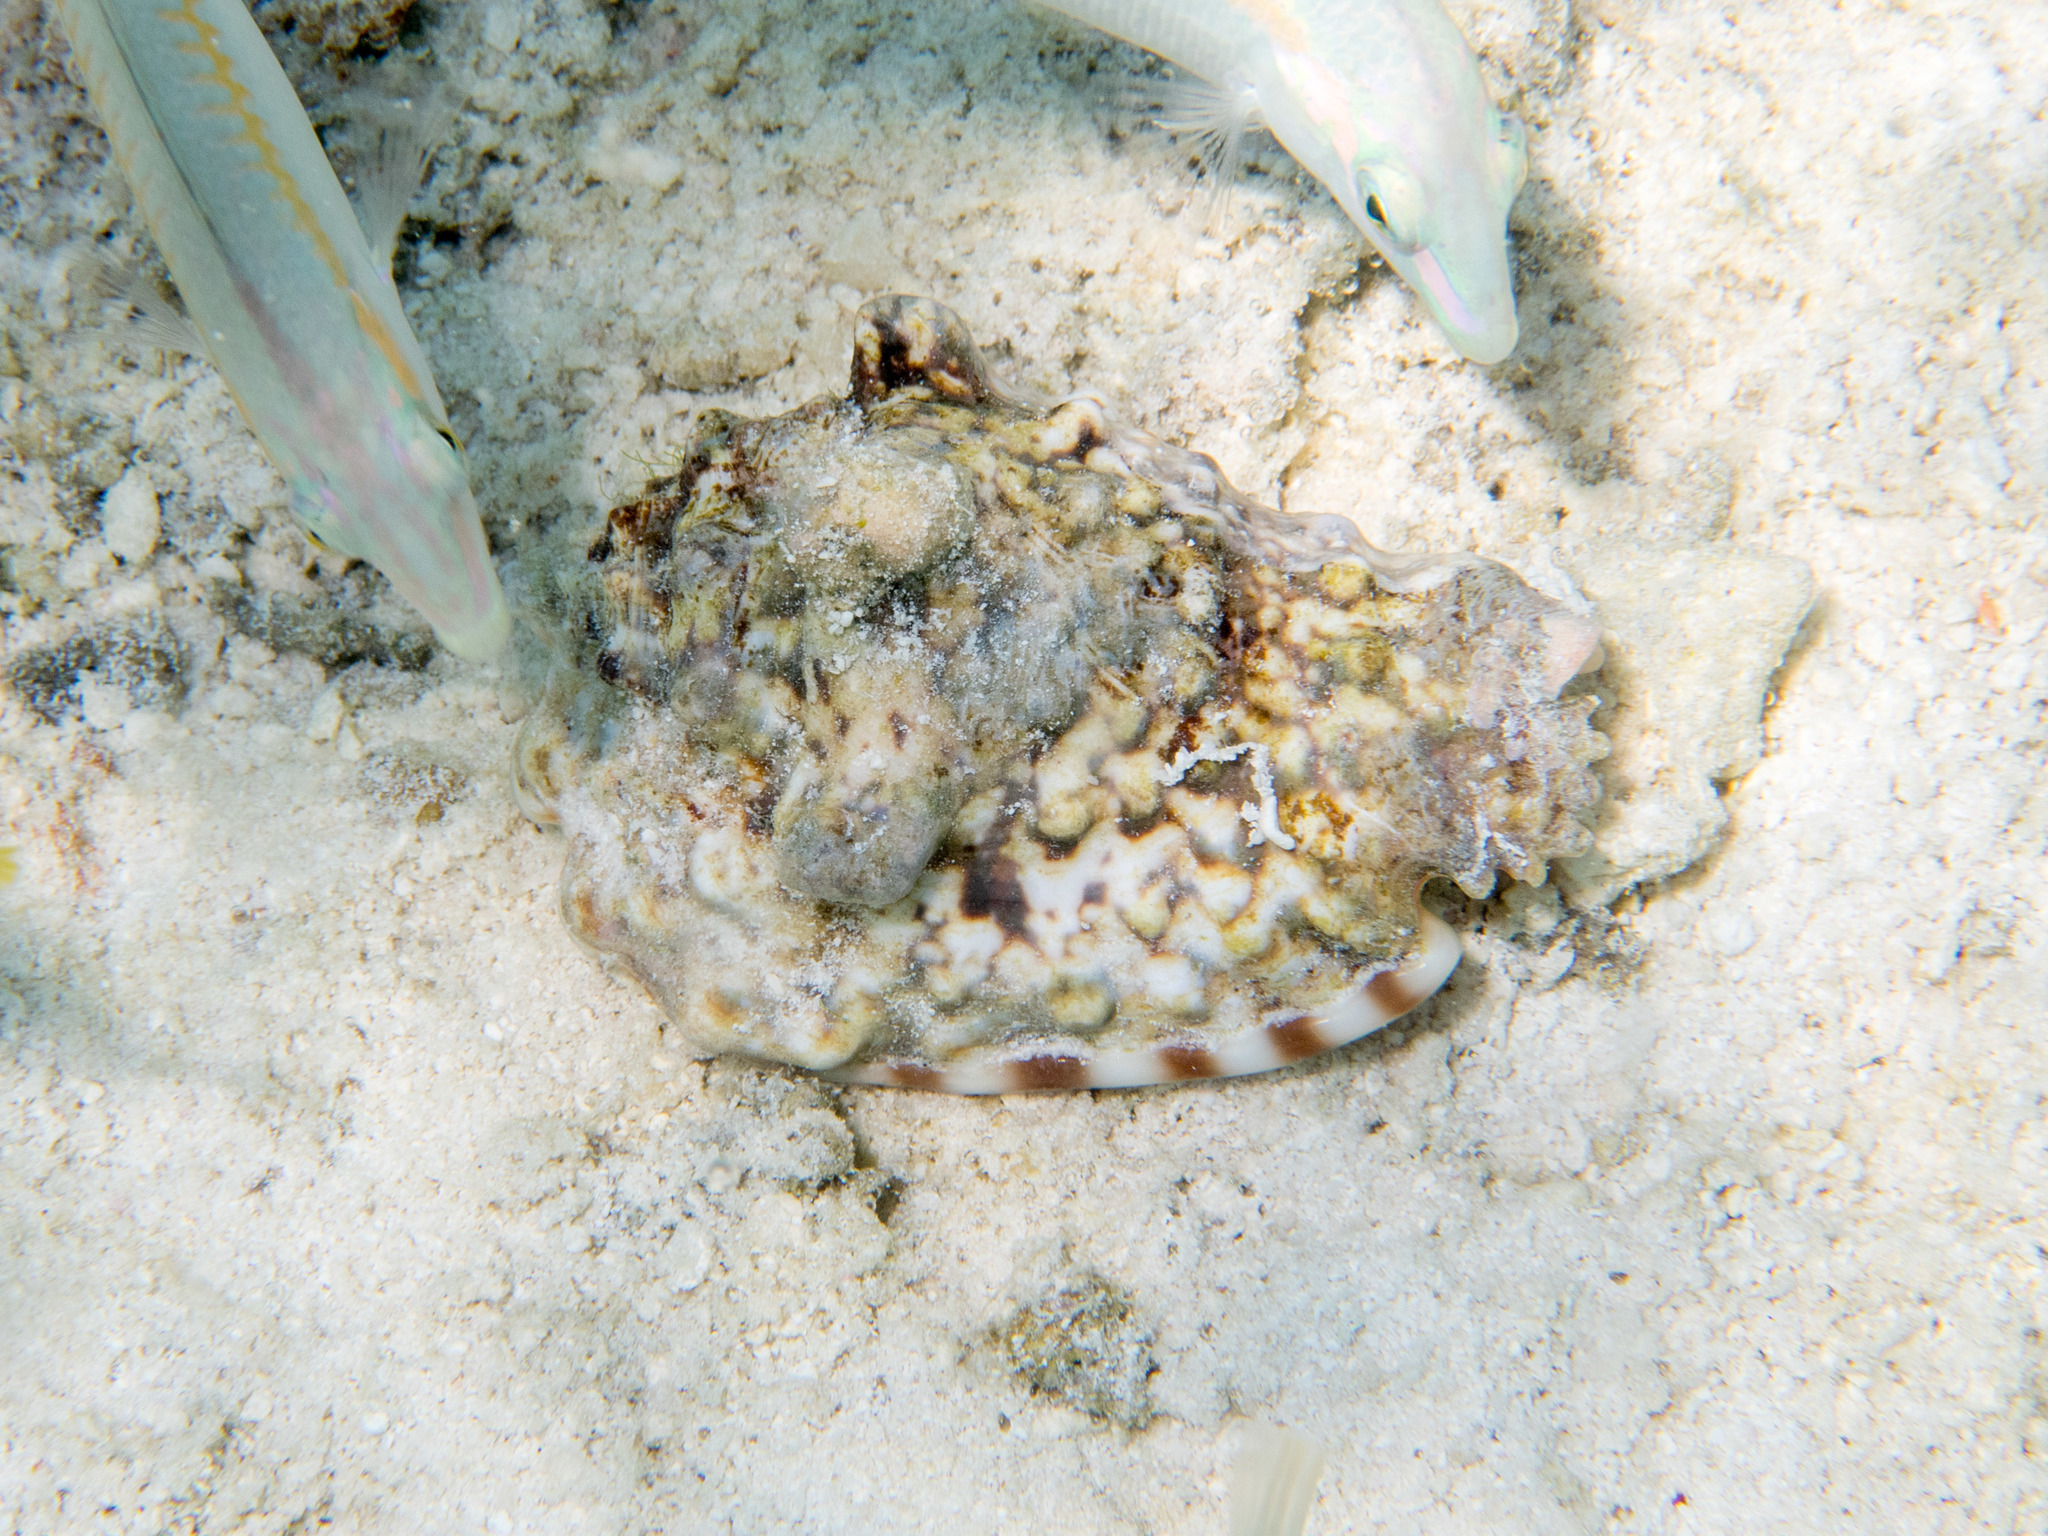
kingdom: Animalia
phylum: Mollusca
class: Gastropoda
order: Littorinimorpha
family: Strombidae
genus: Lentigo
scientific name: Lentigo lentiginosus
